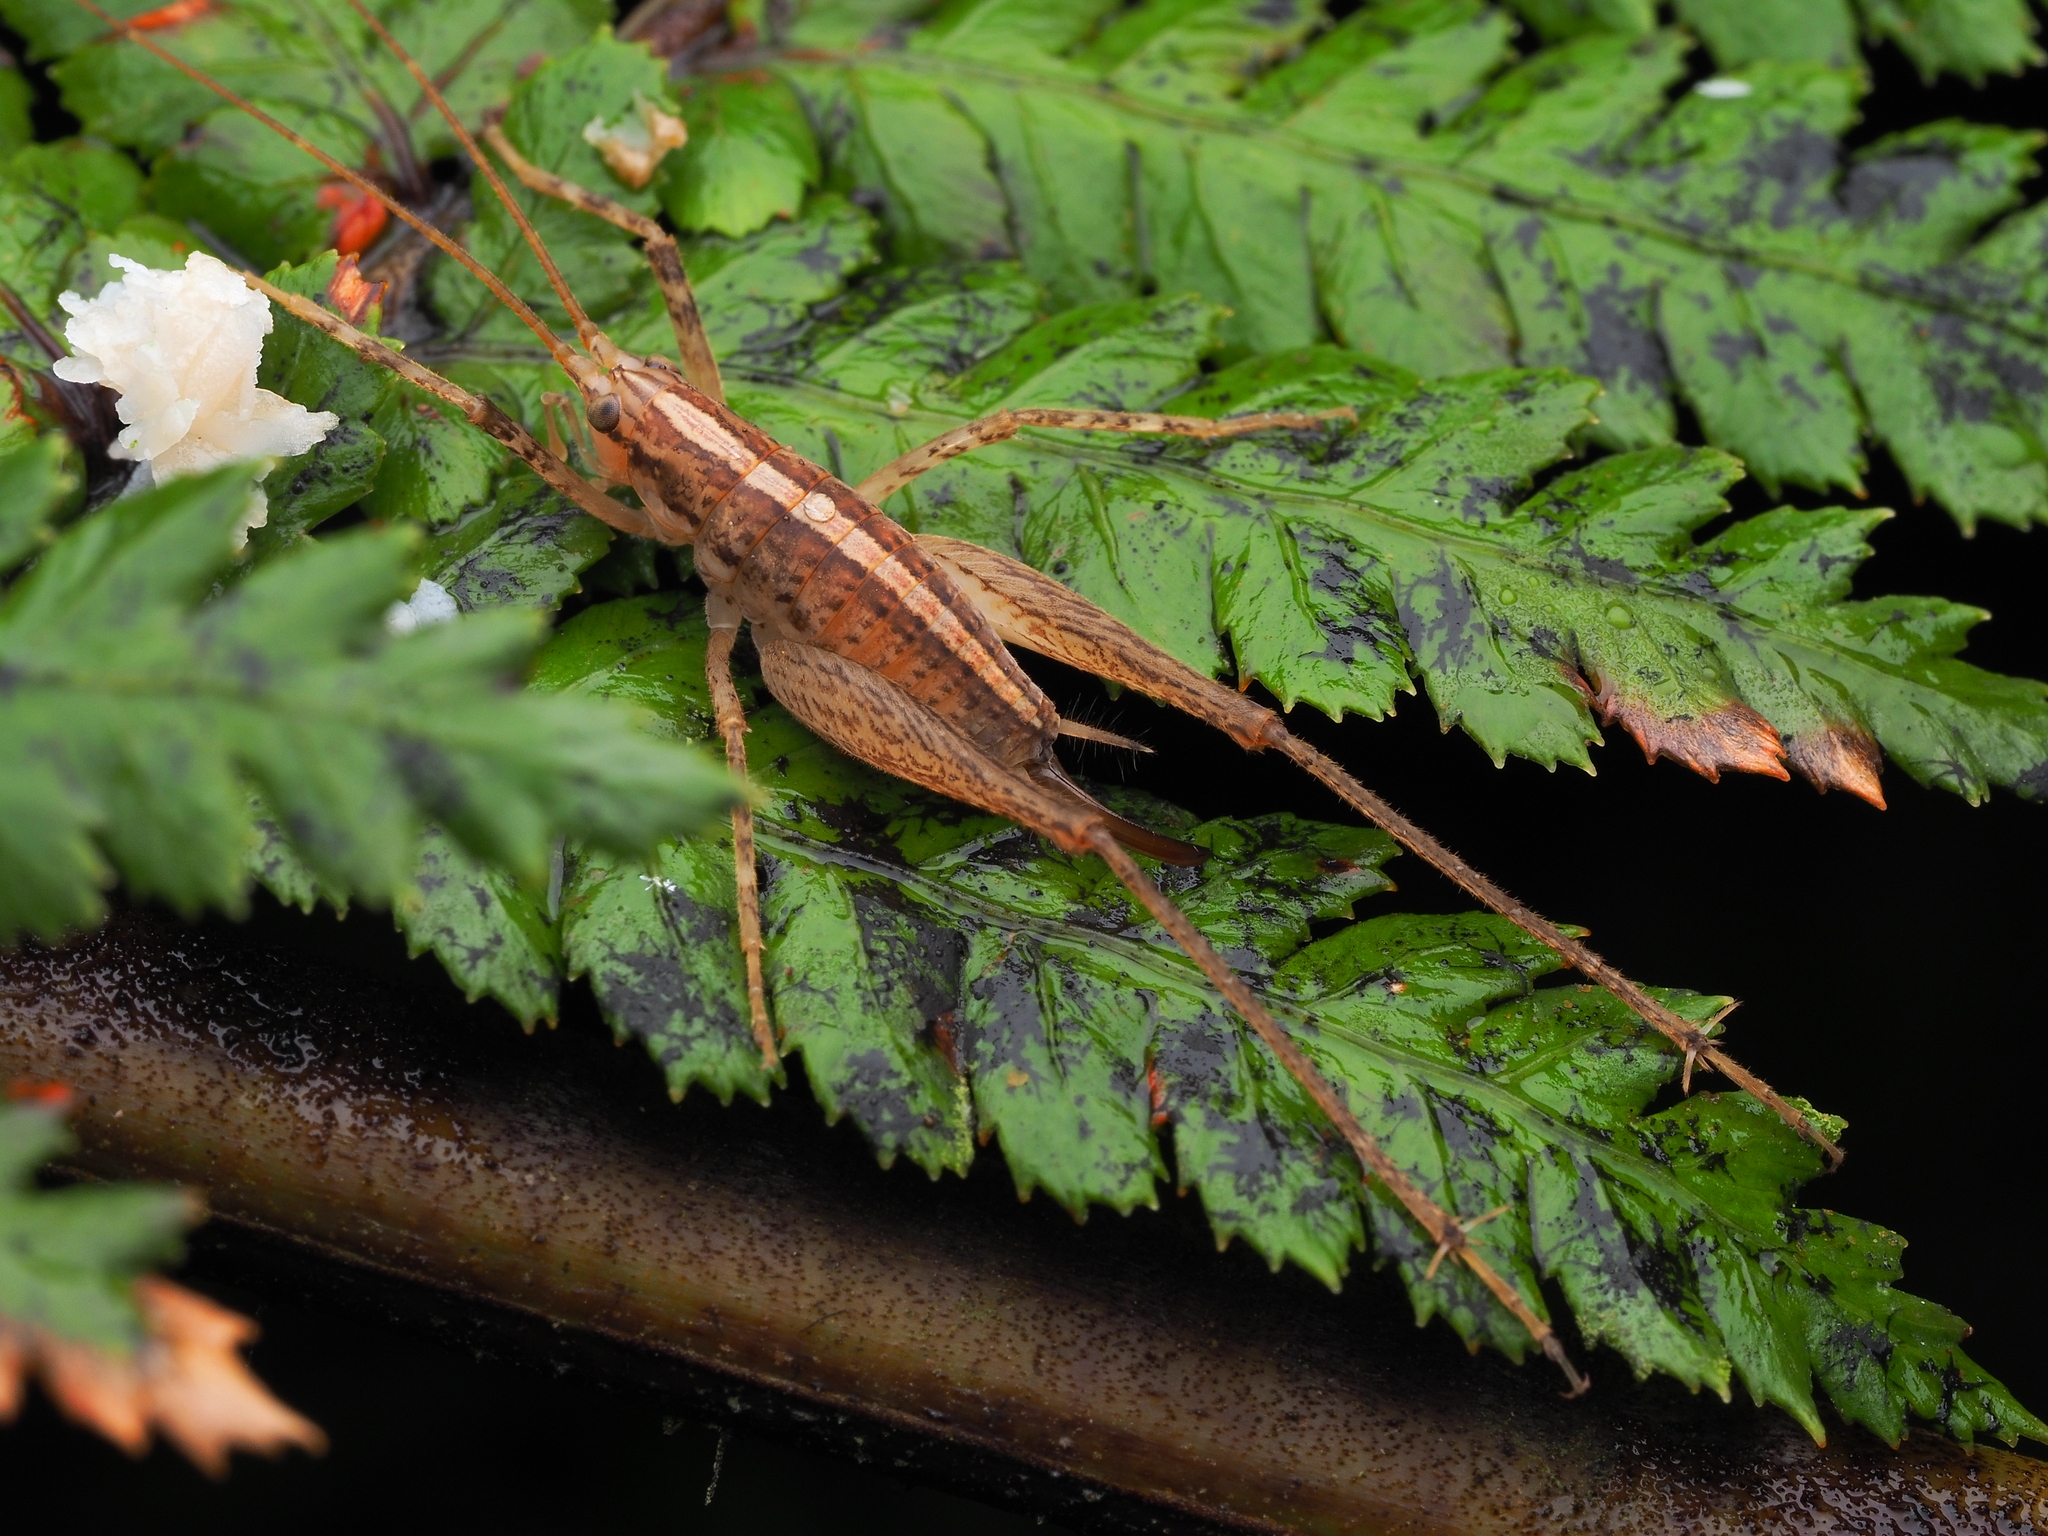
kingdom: Animalia
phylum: Arthropoda
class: Insecta
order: Orthoptera
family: Rhaphidophoridae
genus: Talitropsis
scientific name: Talitropsis poduroides
